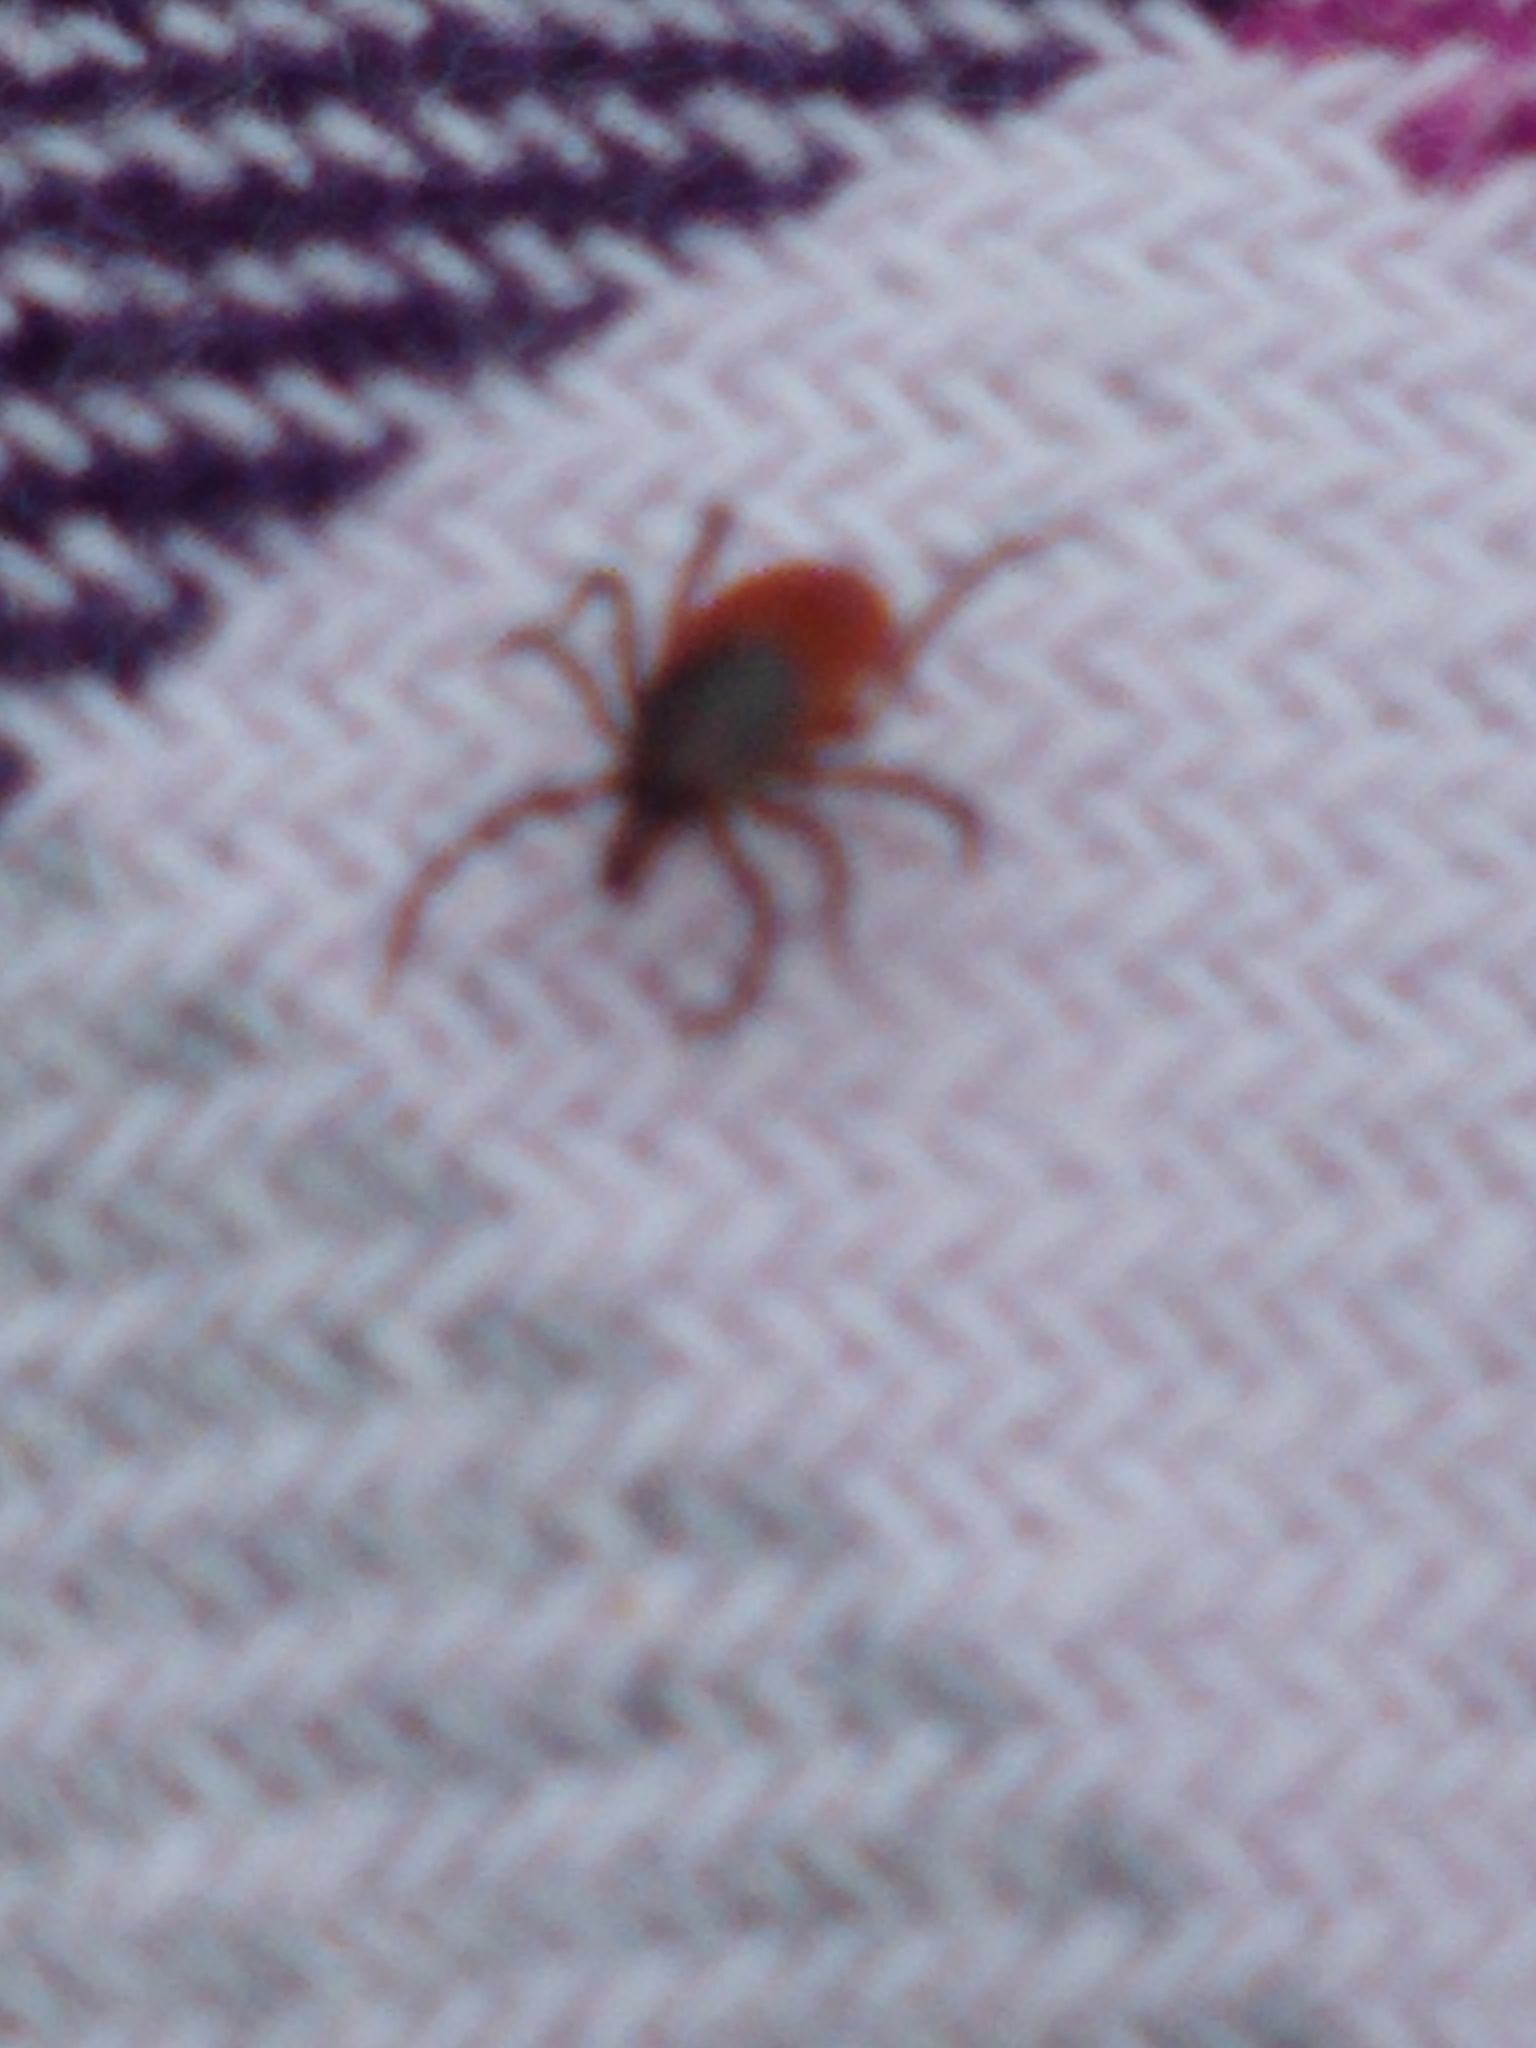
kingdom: Animalia
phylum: Arthropoda
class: Arachnida
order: Ixodida
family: Ixodidae
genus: Ixodes
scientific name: Ixodes scapularis
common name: Black legged tick
